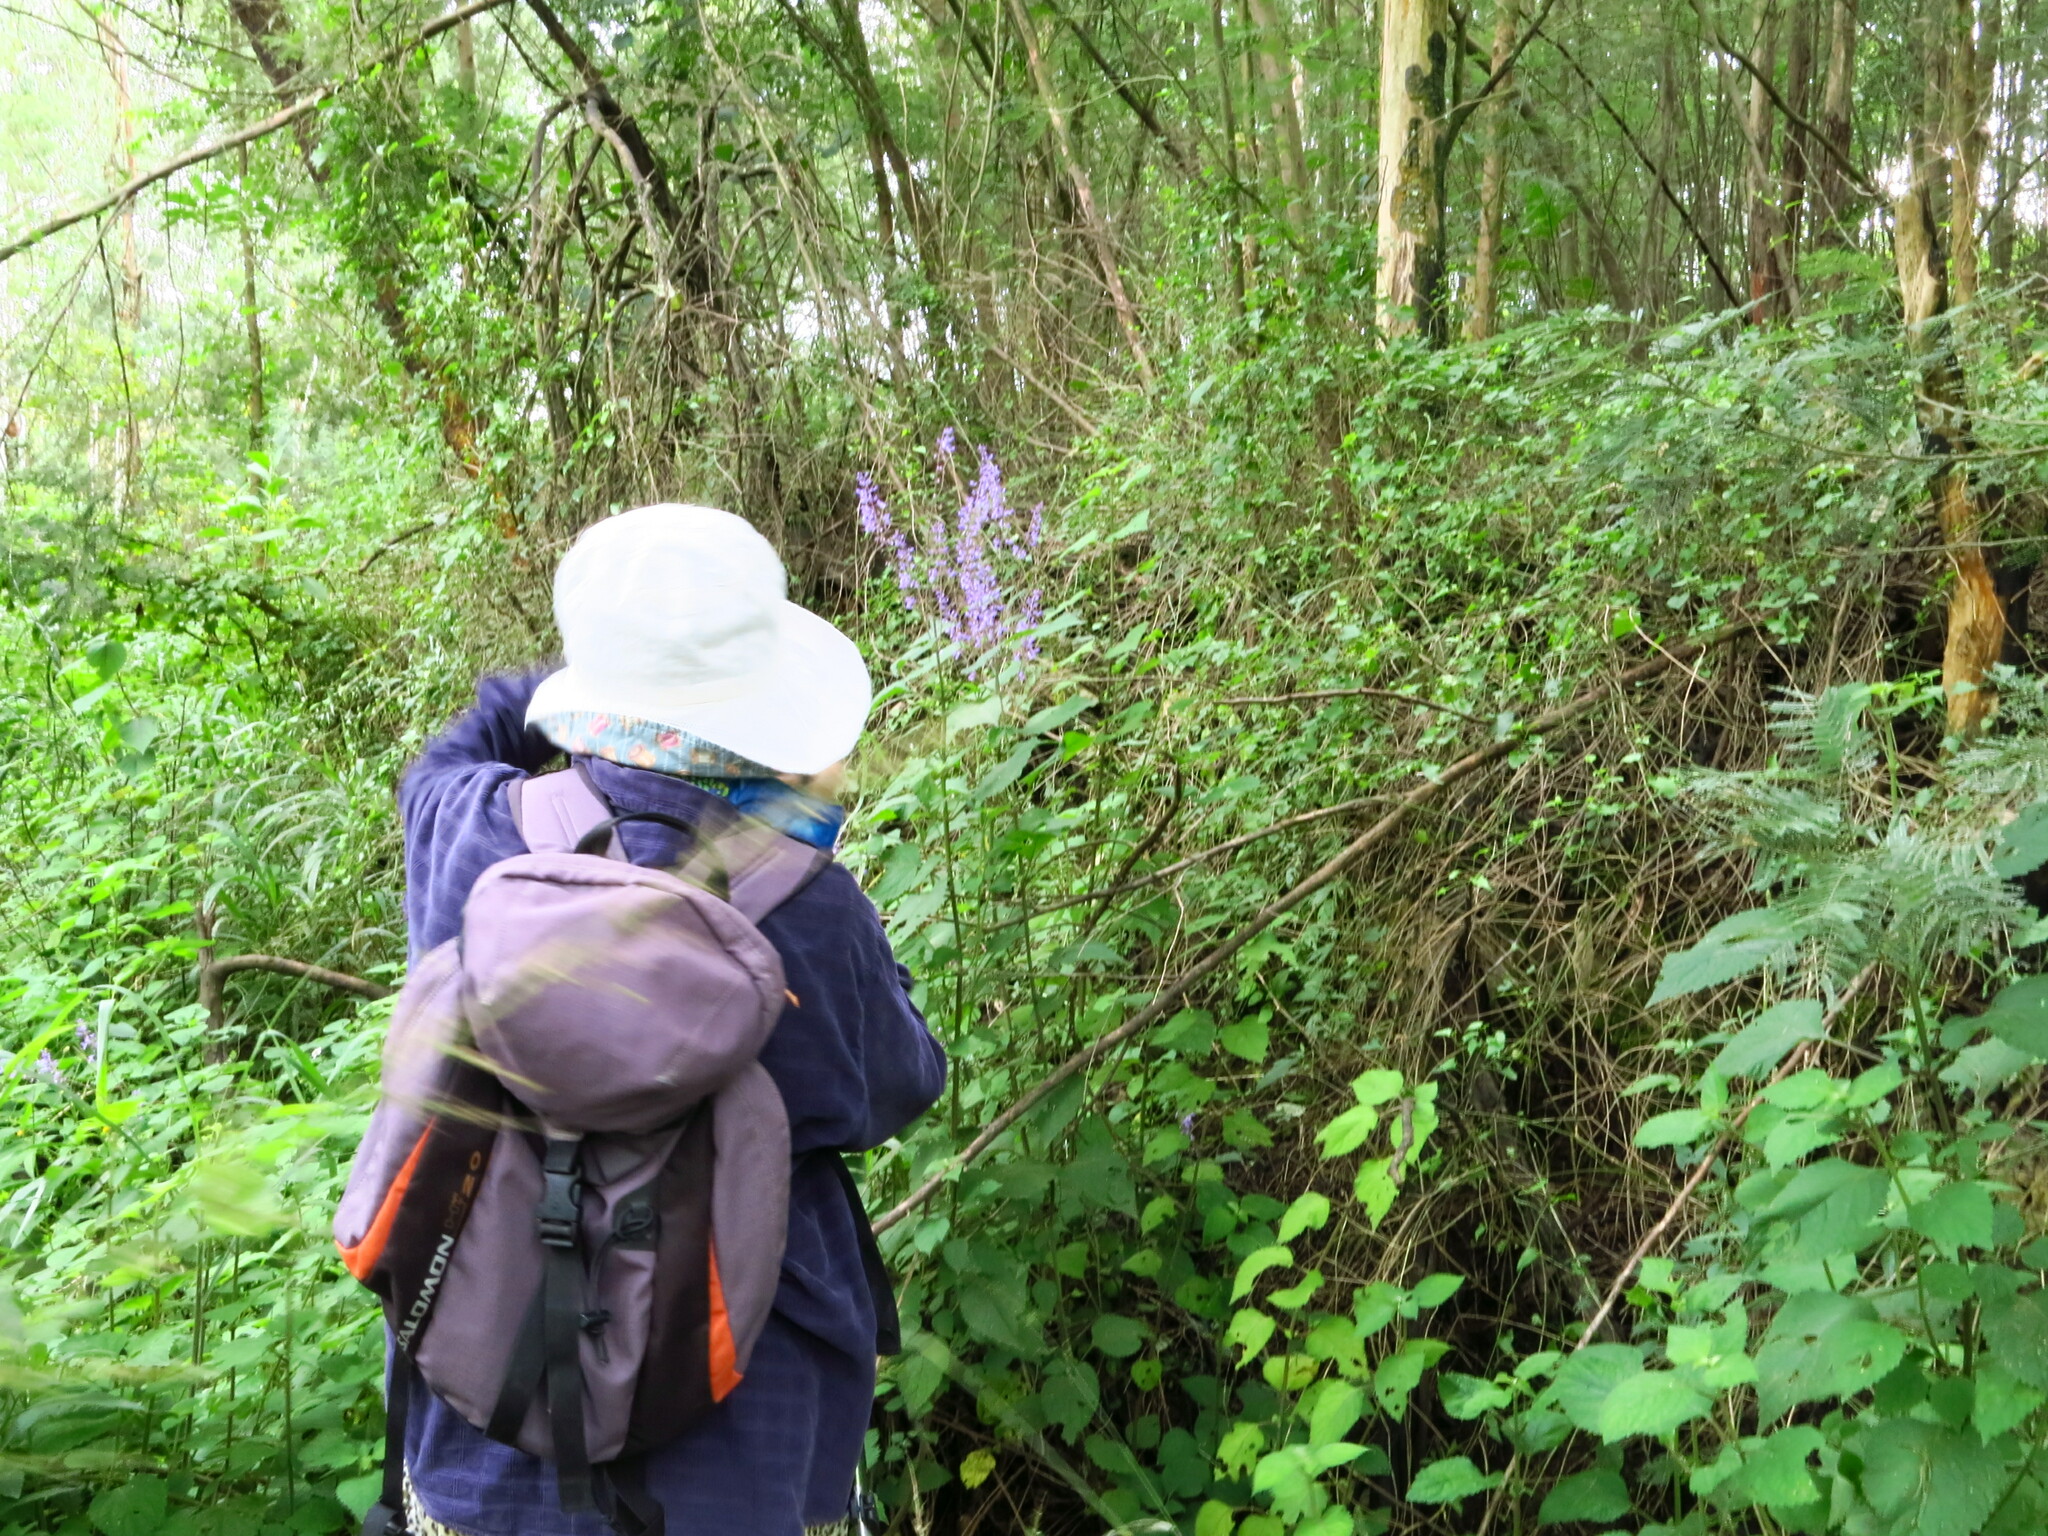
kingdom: Plantae
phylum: Tracheophyta
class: Magnoliopsida
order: Lamiales
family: Lamiaceae
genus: Plectranthus
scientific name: Plectranthus fruticosus
